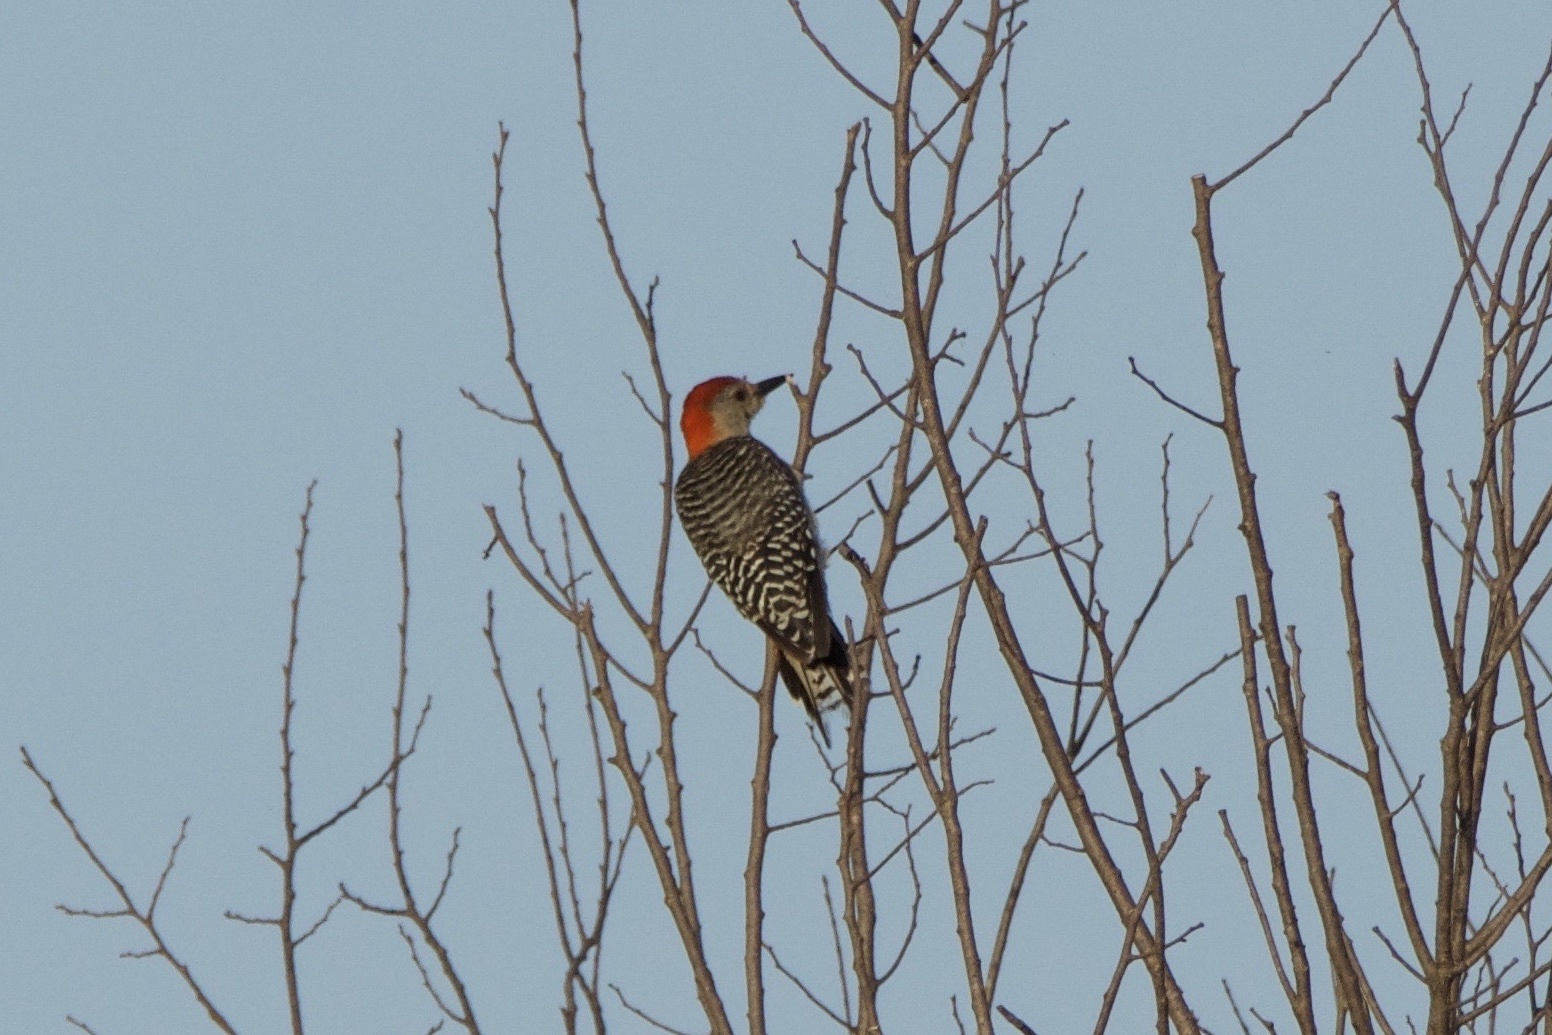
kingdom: Animalia
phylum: Chordata
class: Aves
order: Piciformes
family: Picidae
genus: Melanerpes
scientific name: Melanerpes carolinus
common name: Red-bellied woodpecker
